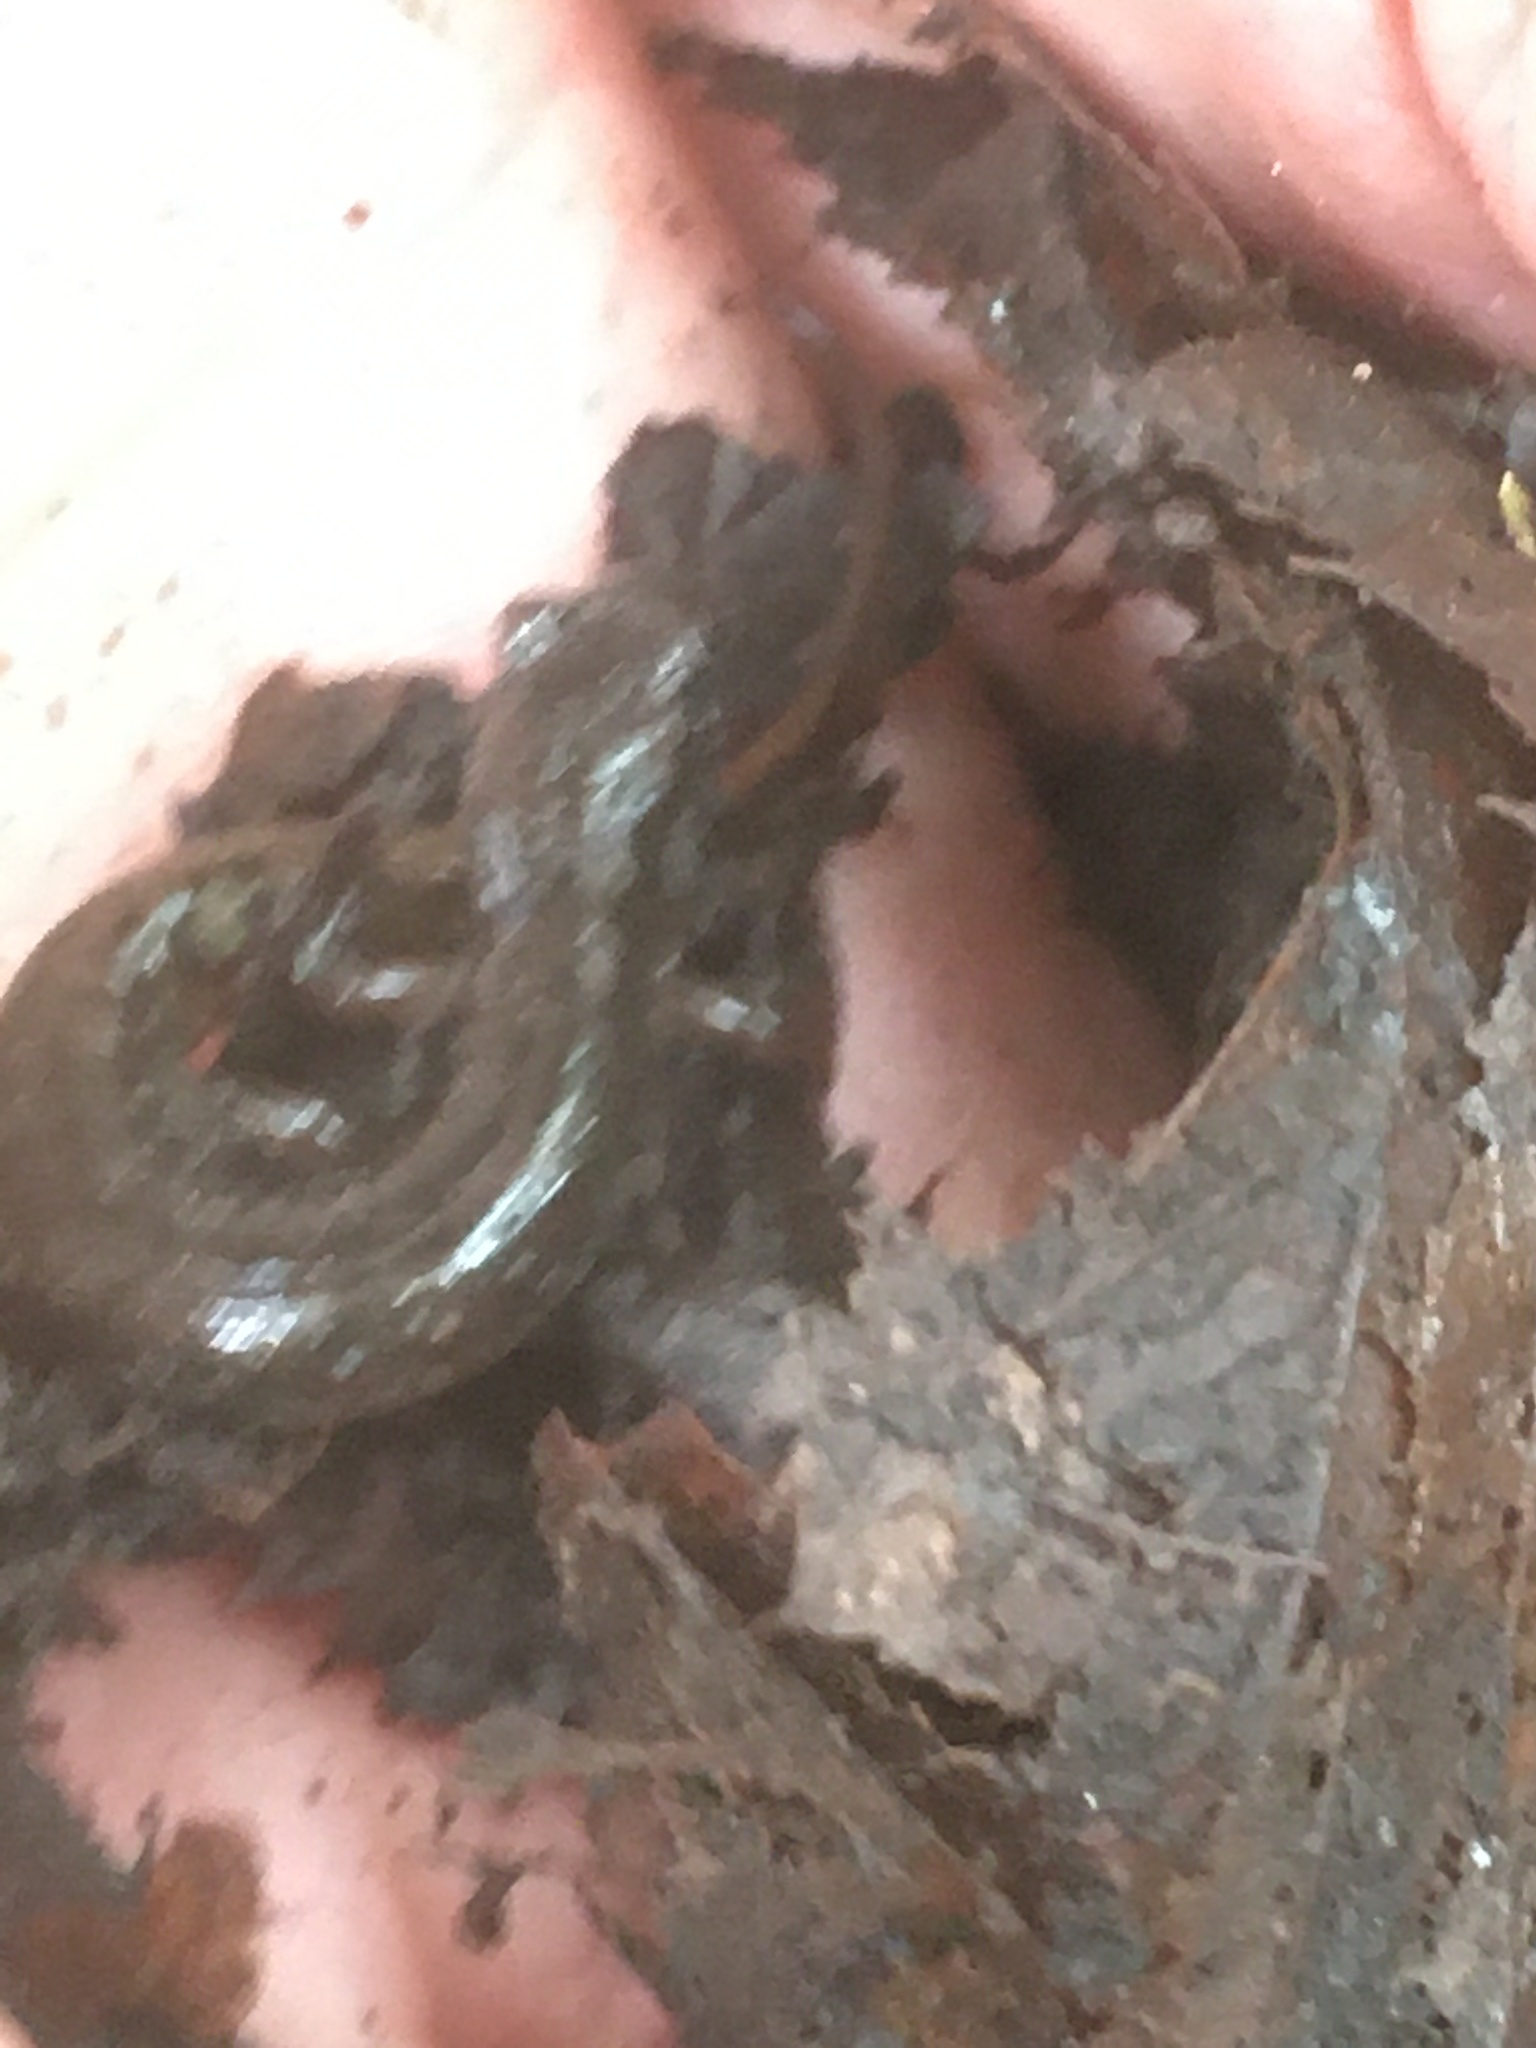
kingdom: Animalia
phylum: Chordata
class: Amphibia
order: Caudata
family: Plethodontidae
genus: Desmognathus
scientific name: Desmognathus fuscus
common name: Northern dusky salamander
